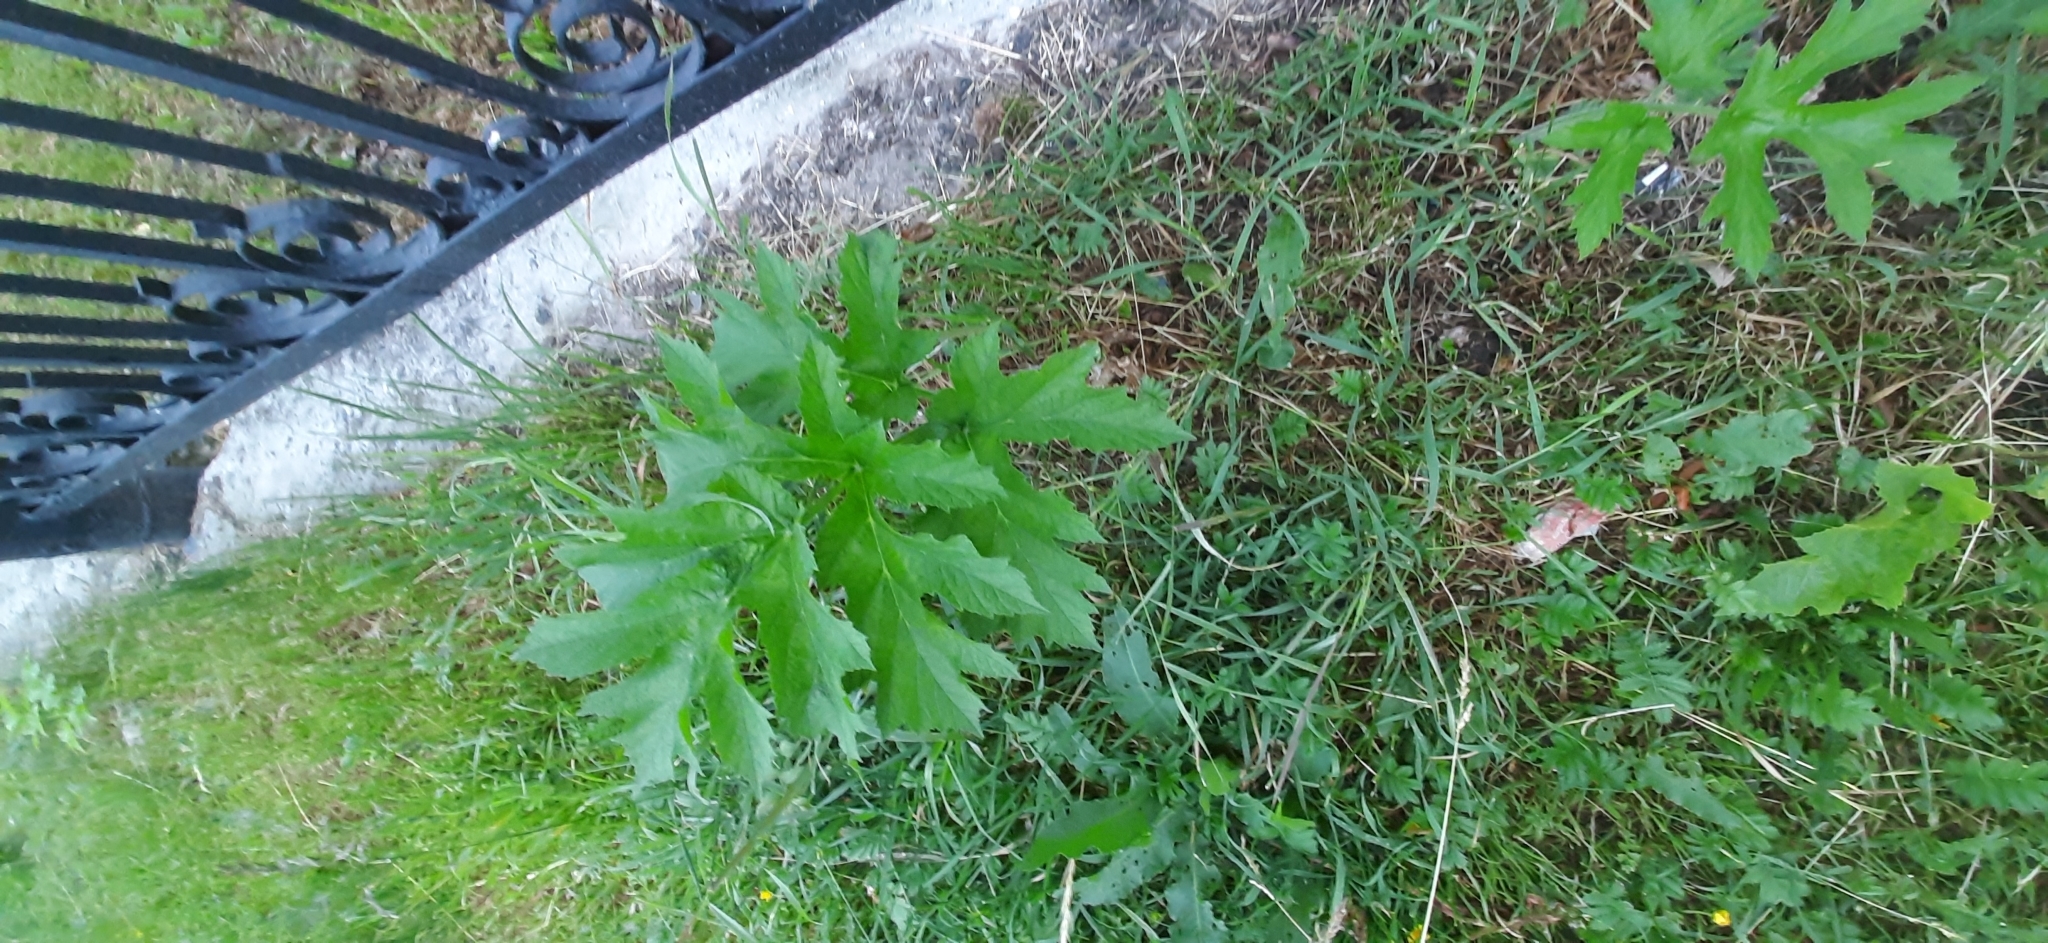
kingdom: Plantae
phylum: Tracheophyta
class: Magnoliopsida
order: Apiales
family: Apiaceae
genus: Heracleum
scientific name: Heracleum sphondylium
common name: Hogweed
